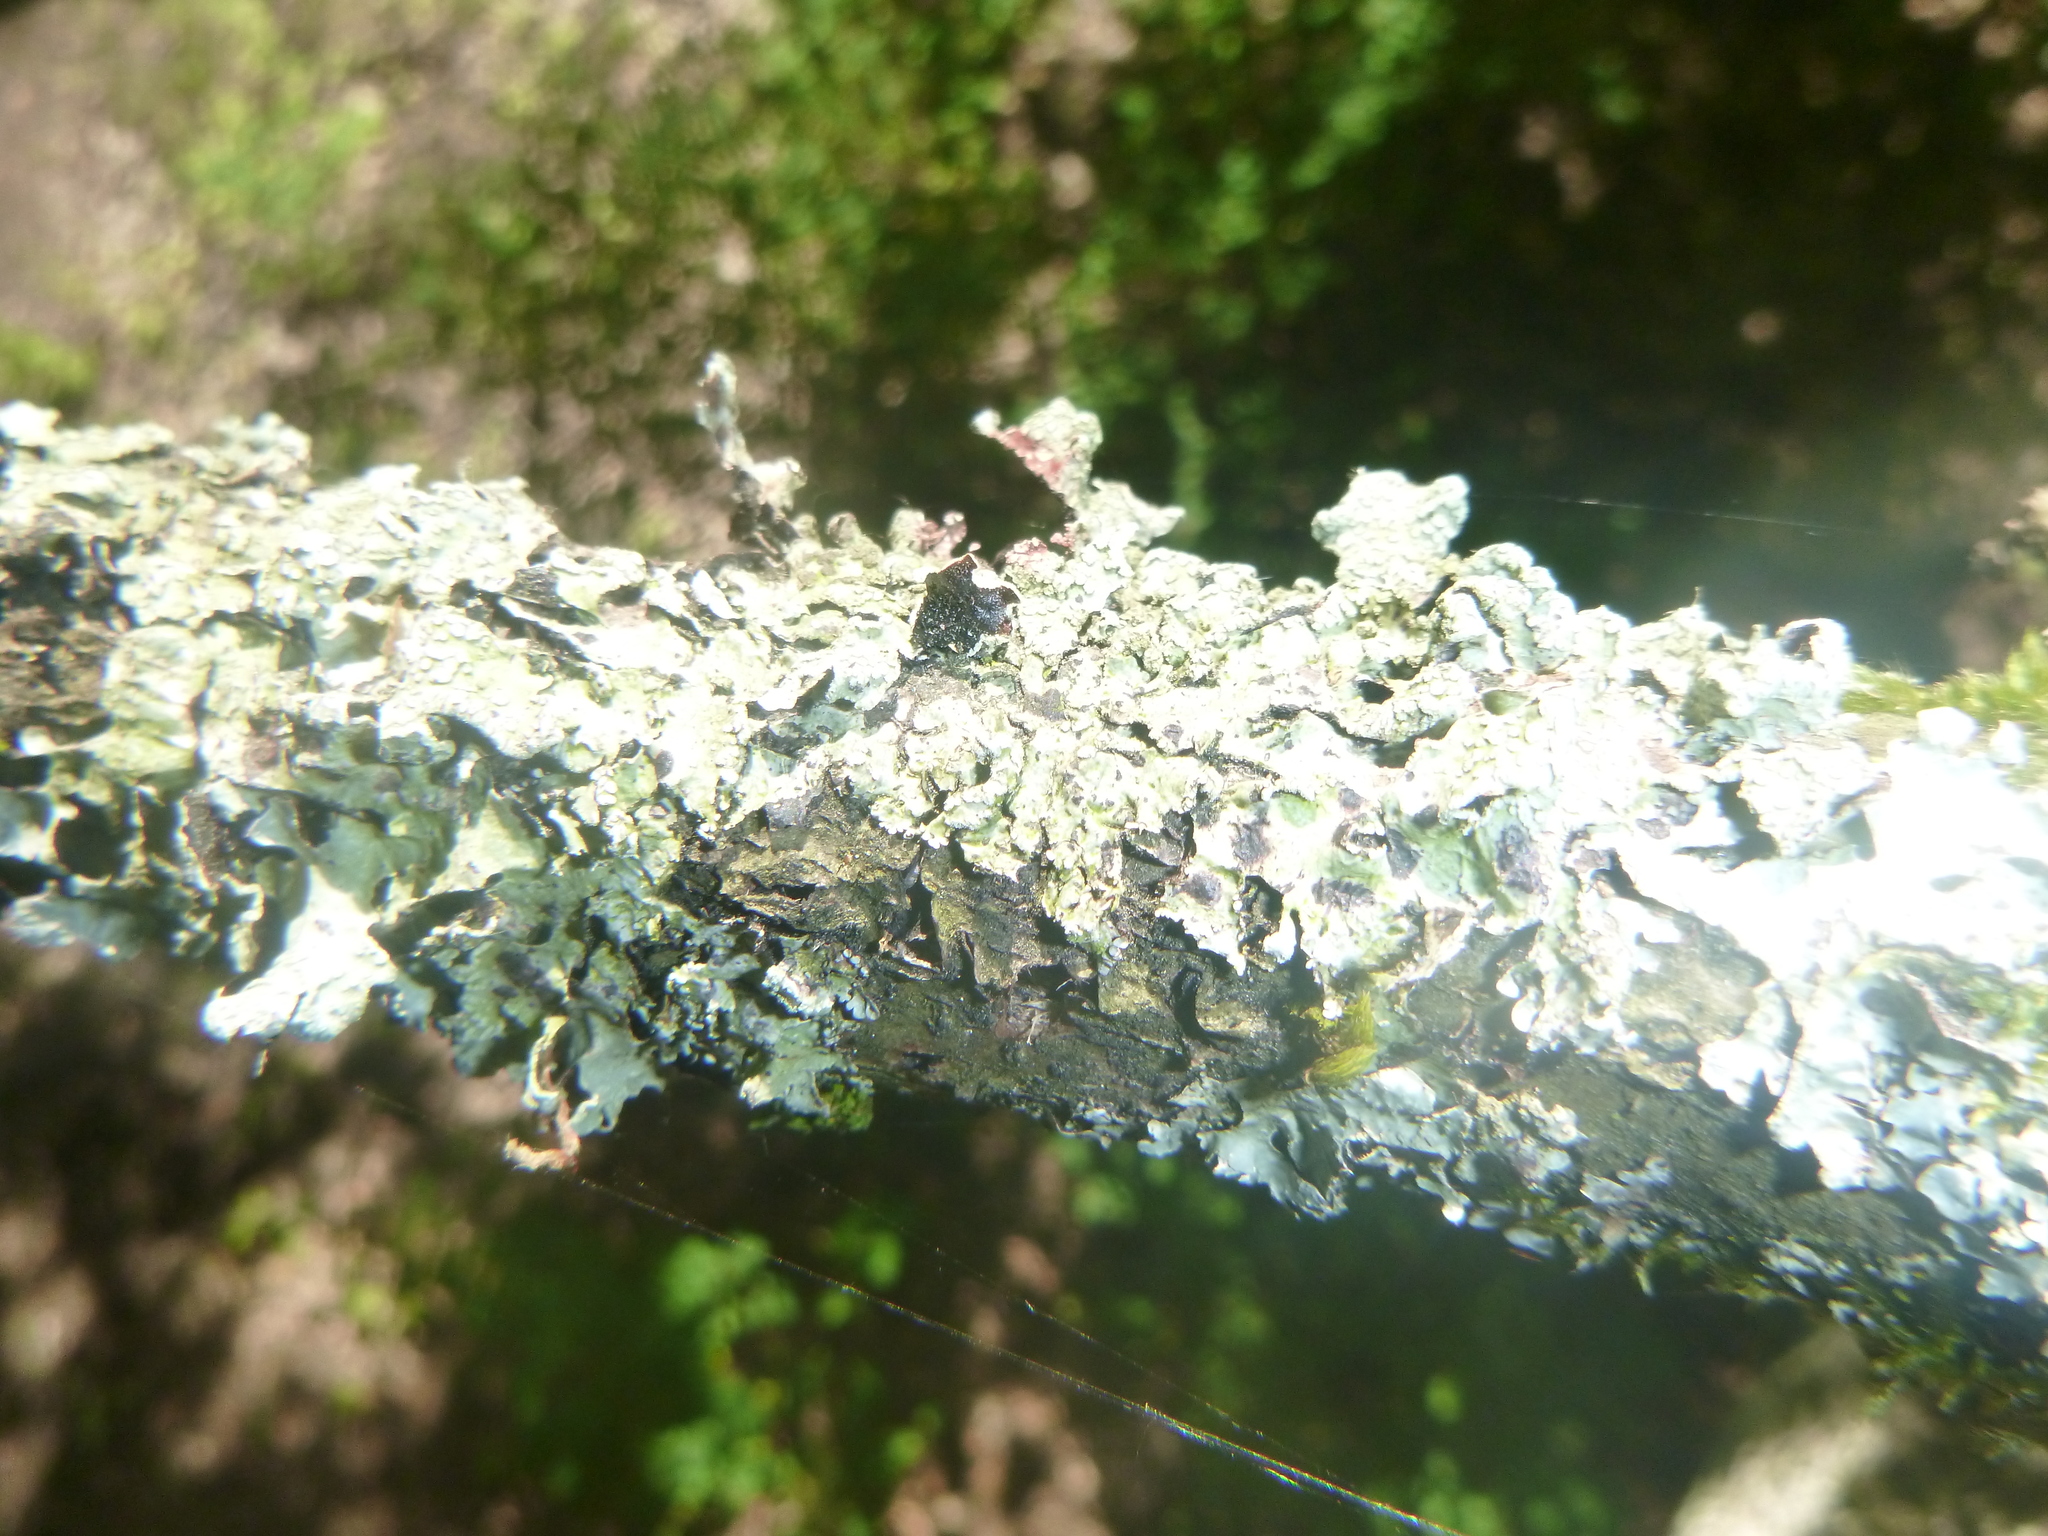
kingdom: Fungi
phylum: Ascomycota
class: Lecanoromycetes
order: Lecanorales
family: Parmeliaceae
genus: Parmelia
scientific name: Parmelia sulcata
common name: Netted shield lichen
